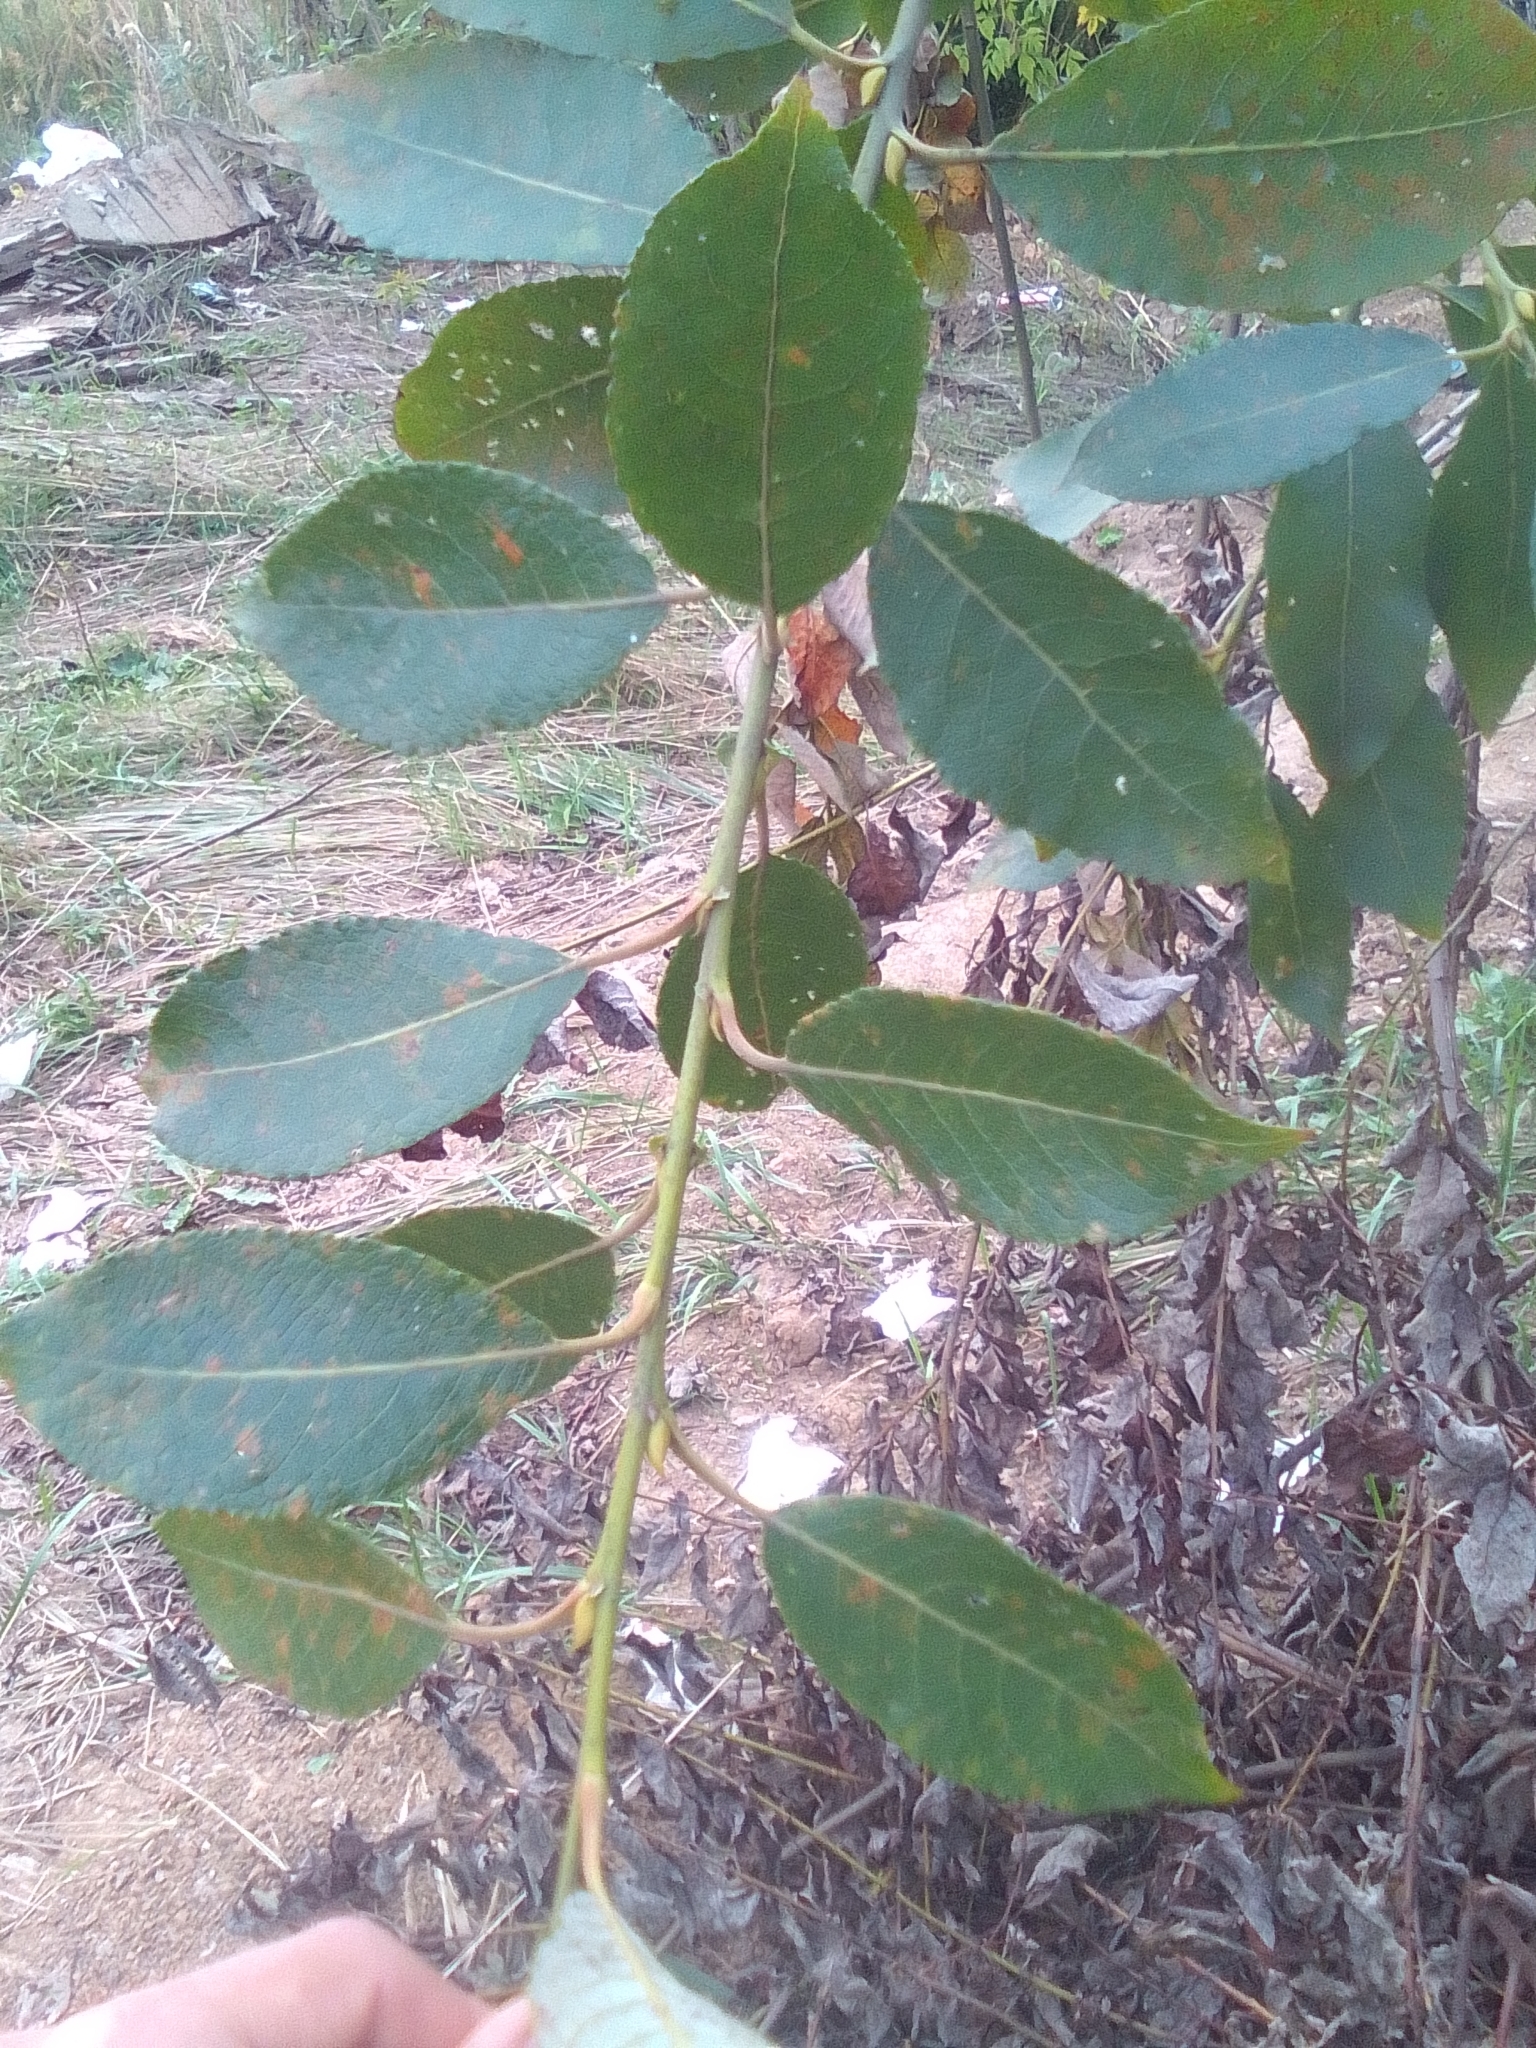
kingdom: Plantae
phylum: Tracheophyta
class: Magnoliopsida
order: Malpighiales
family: Salicaceae
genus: Salix
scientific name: Salix caprea
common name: Goat willow
